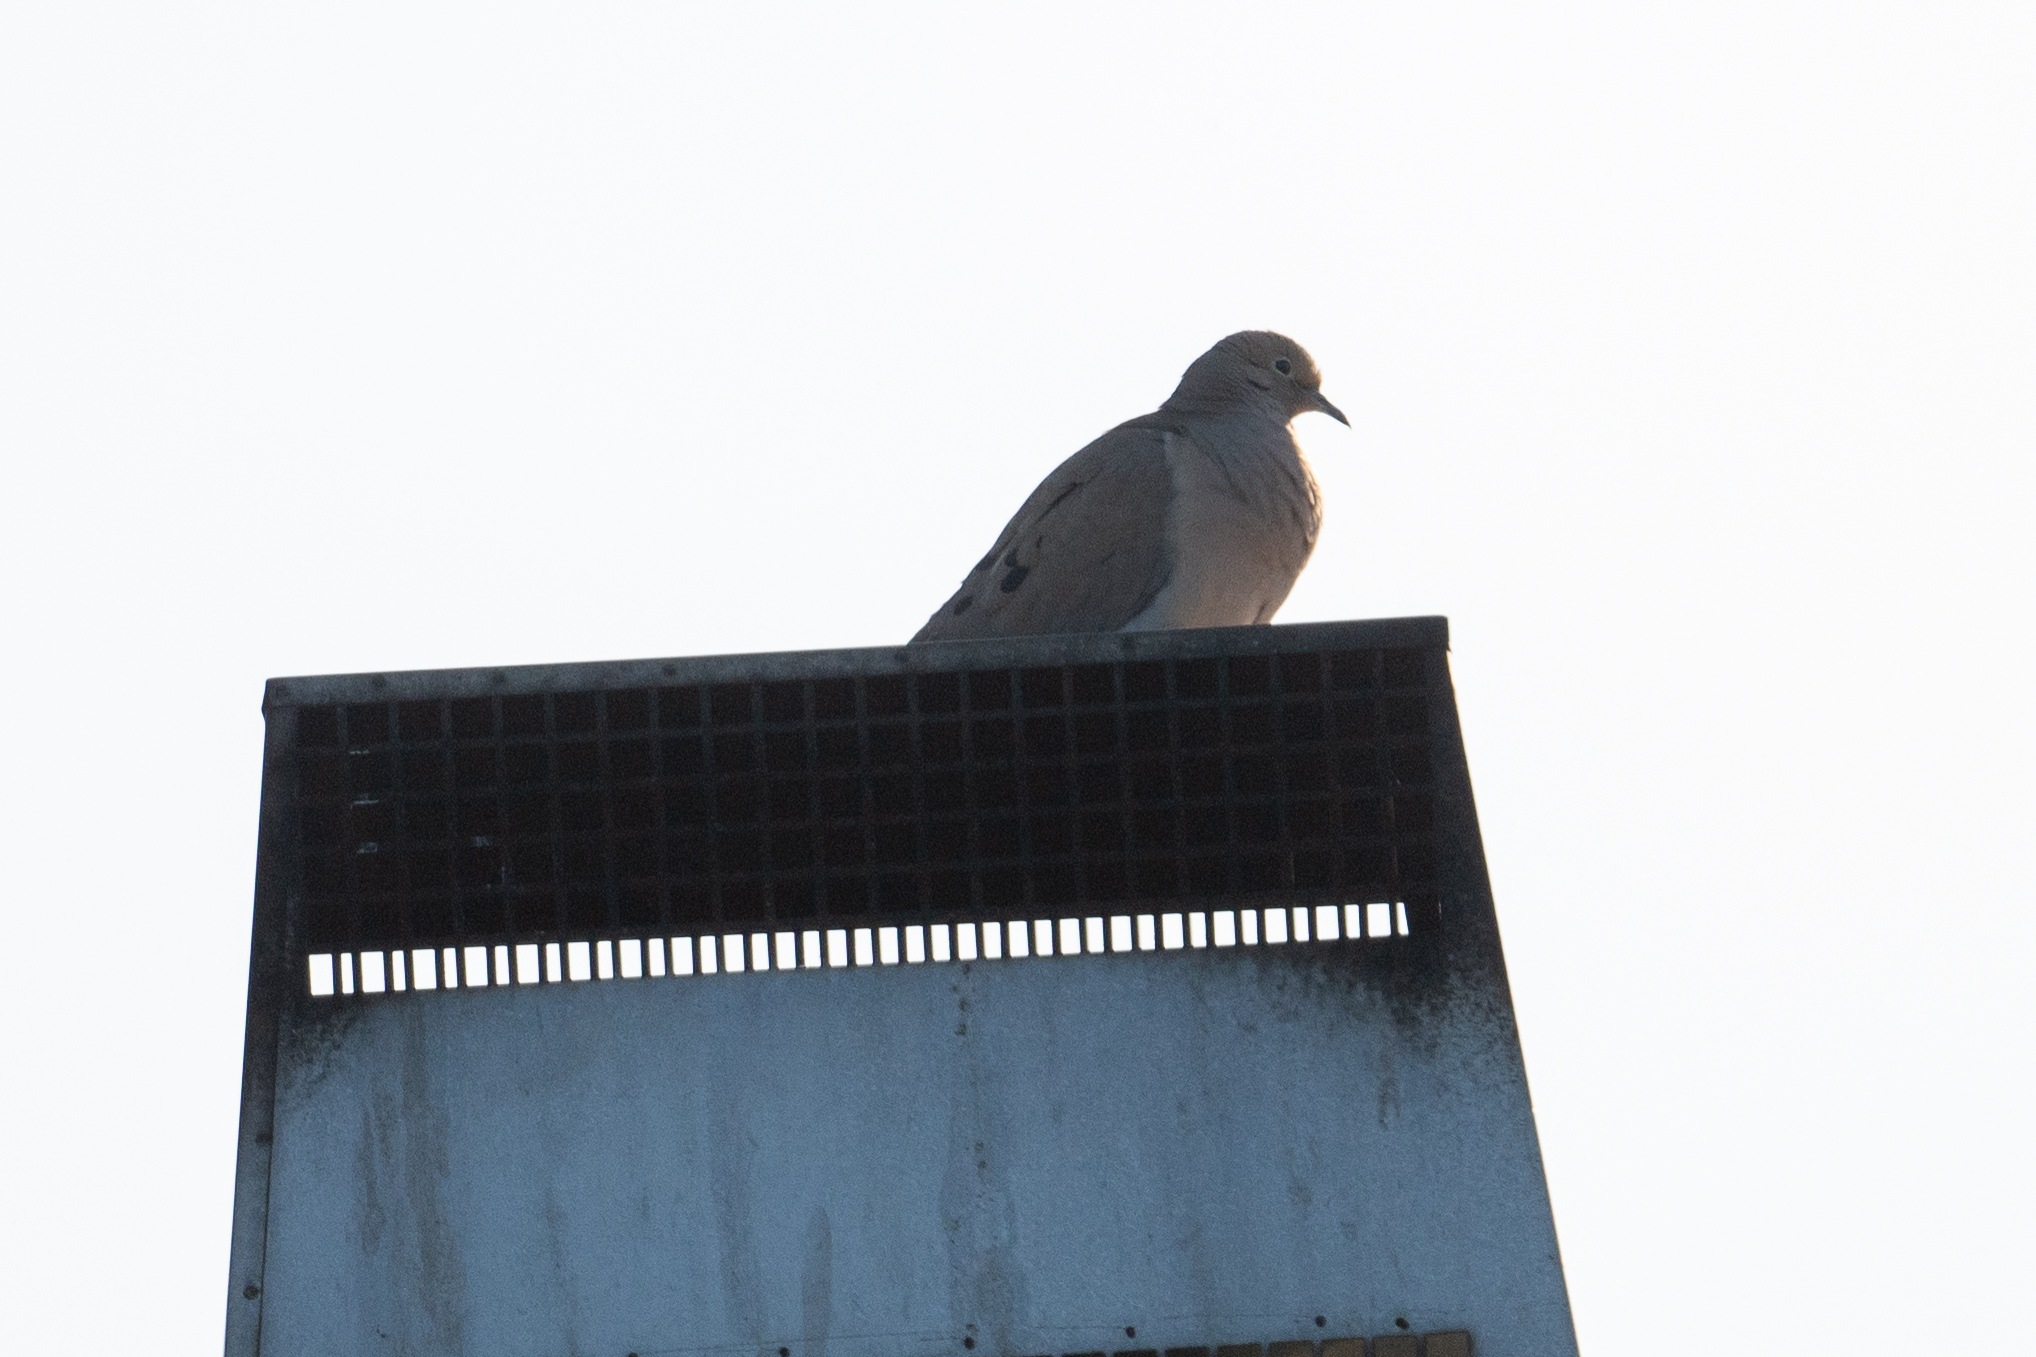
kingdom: Animalia
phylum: Chordata
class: Aves
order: Columbiformes
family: Columbidae
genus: Zenaida
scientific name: Zenaida macroura
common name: Mourning dove
